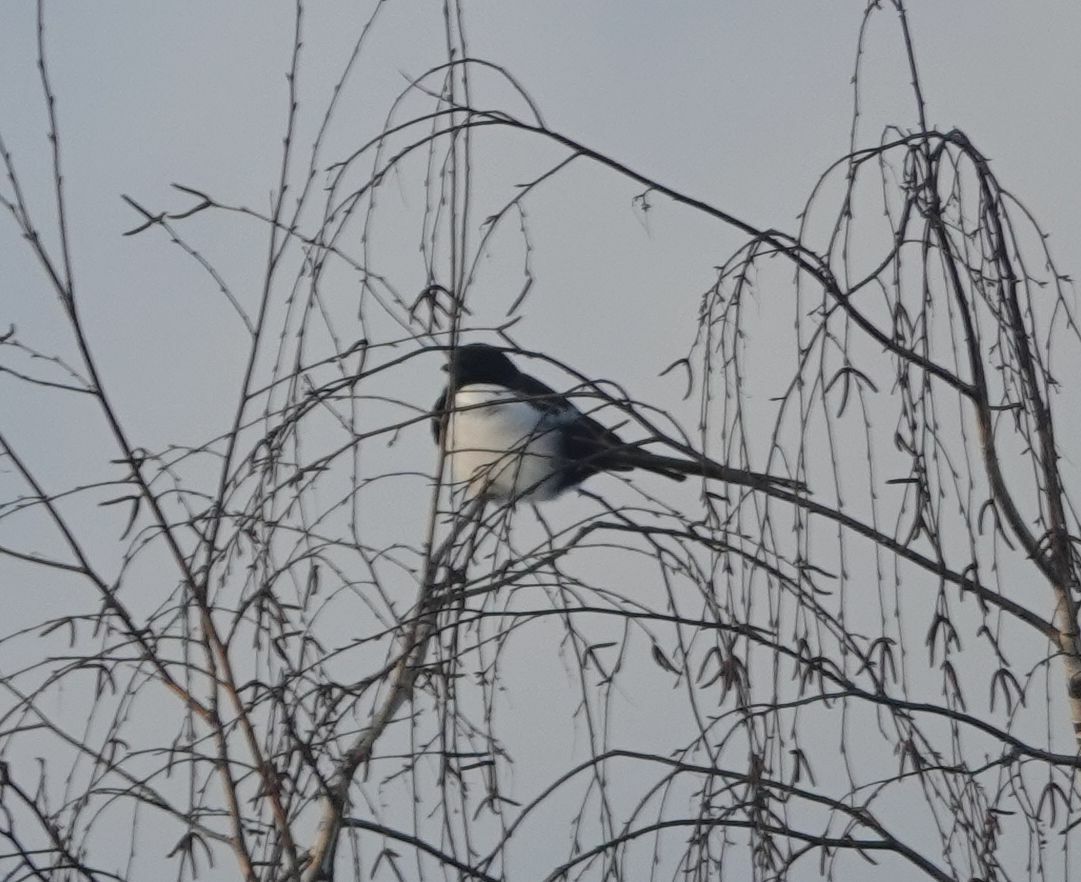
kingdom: Animalia
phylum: Chordata
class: Aves
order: Passeriformes
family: Corvidae
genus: Pica
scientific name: Pica pica
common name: Eurasian magpie
